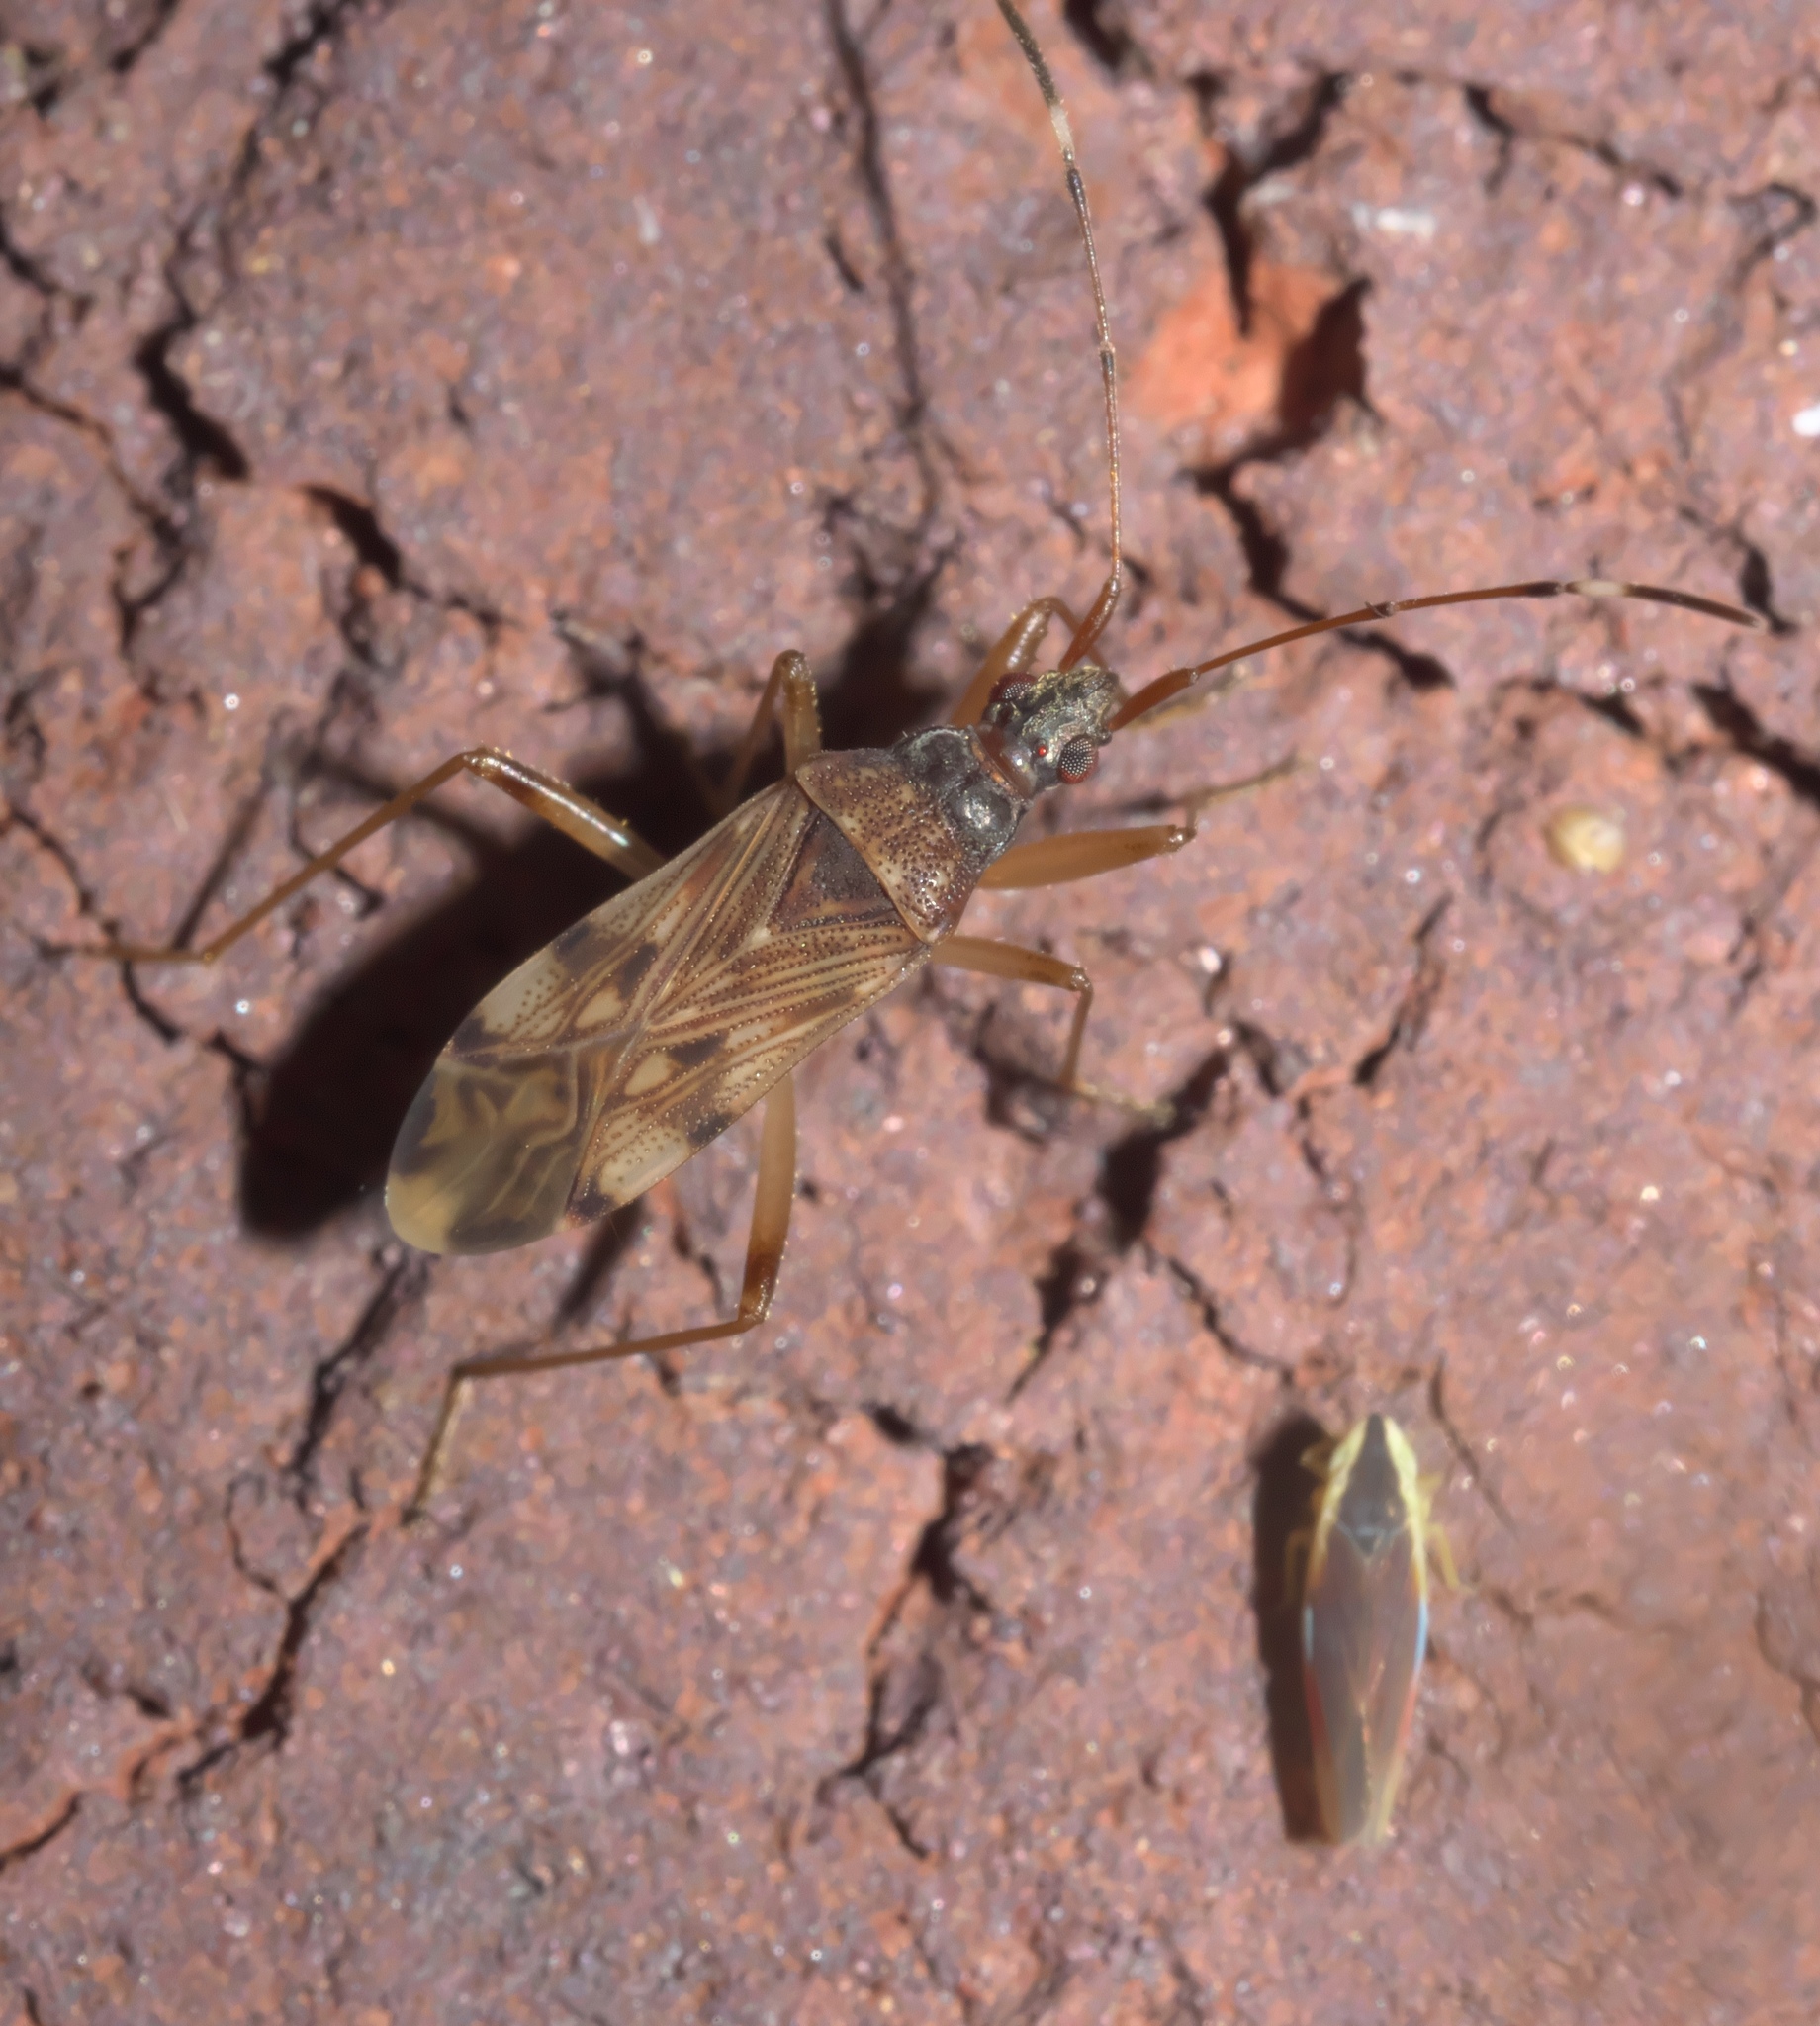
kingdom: Animalia
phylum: Arthropoda
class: Insecta
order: Hemiptera
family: Rhyparochromidae
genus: Ozophora
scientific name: Ozophora picturata
